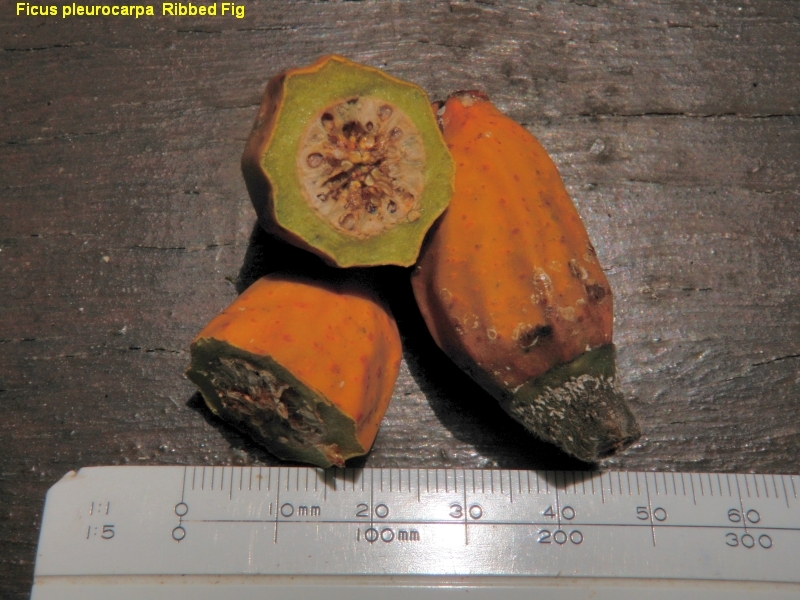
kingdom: Plantae
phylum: Tracheophyta
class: Magnoliopsida
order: Rosales
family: Moraceae
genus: Ficus
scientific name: Ficus pleurocarpa
